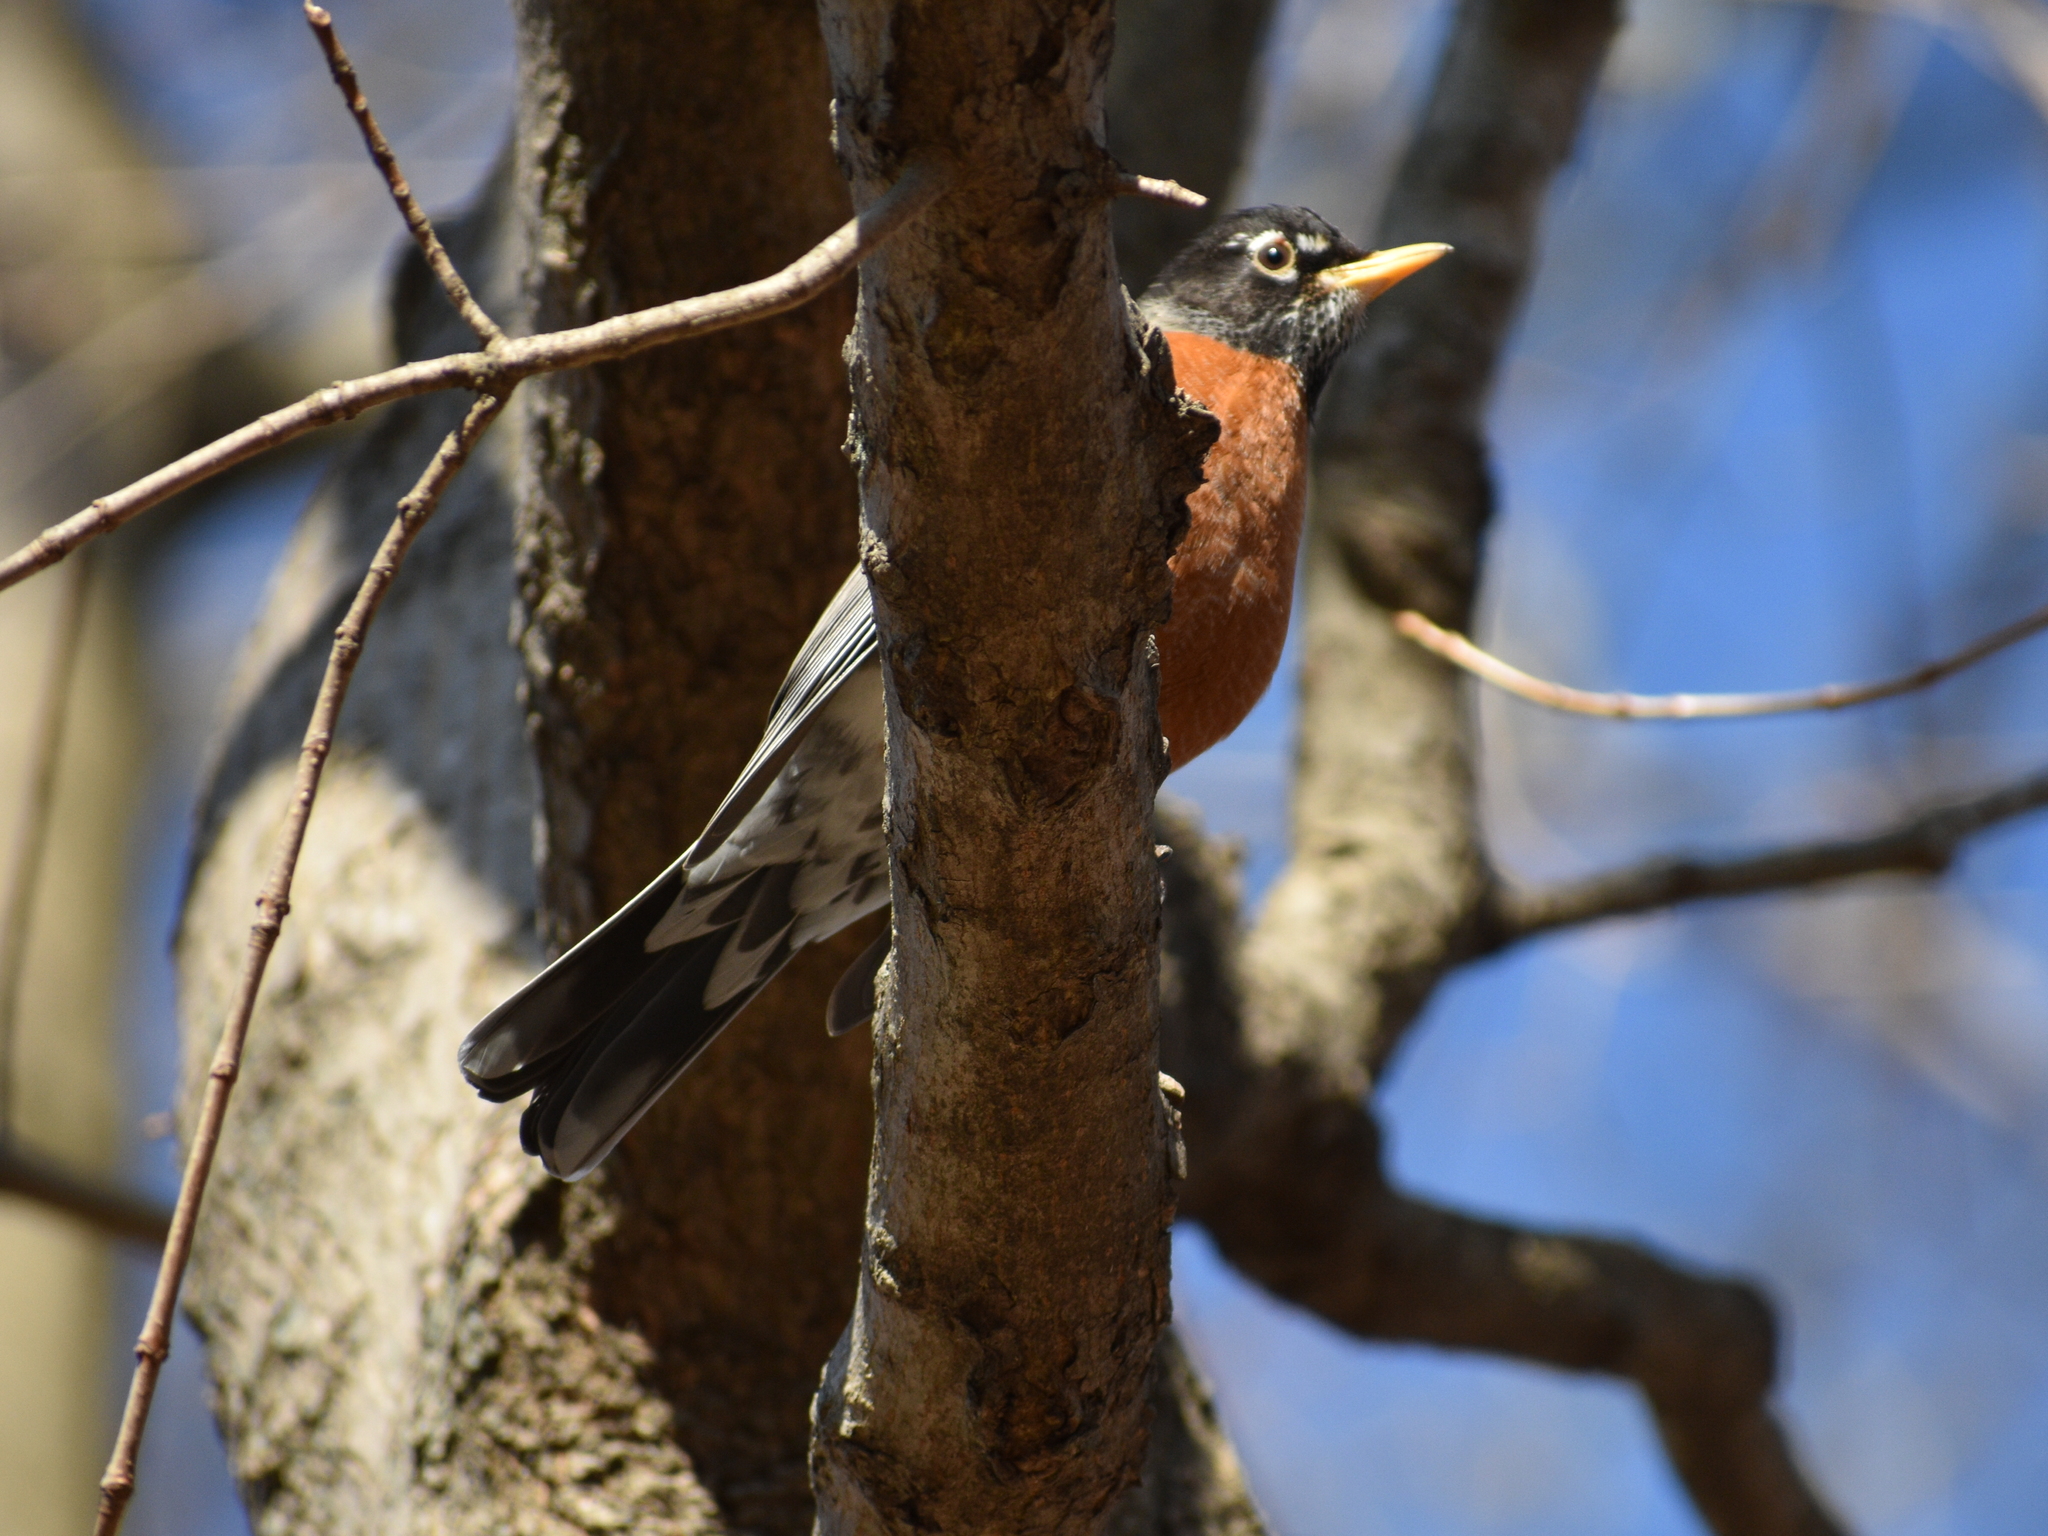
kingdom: Animalia
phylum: Chordata
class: Aves
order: Passeriformes
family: Turdidae
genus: Turdus
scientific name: Turdus migratorius
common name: American robin
